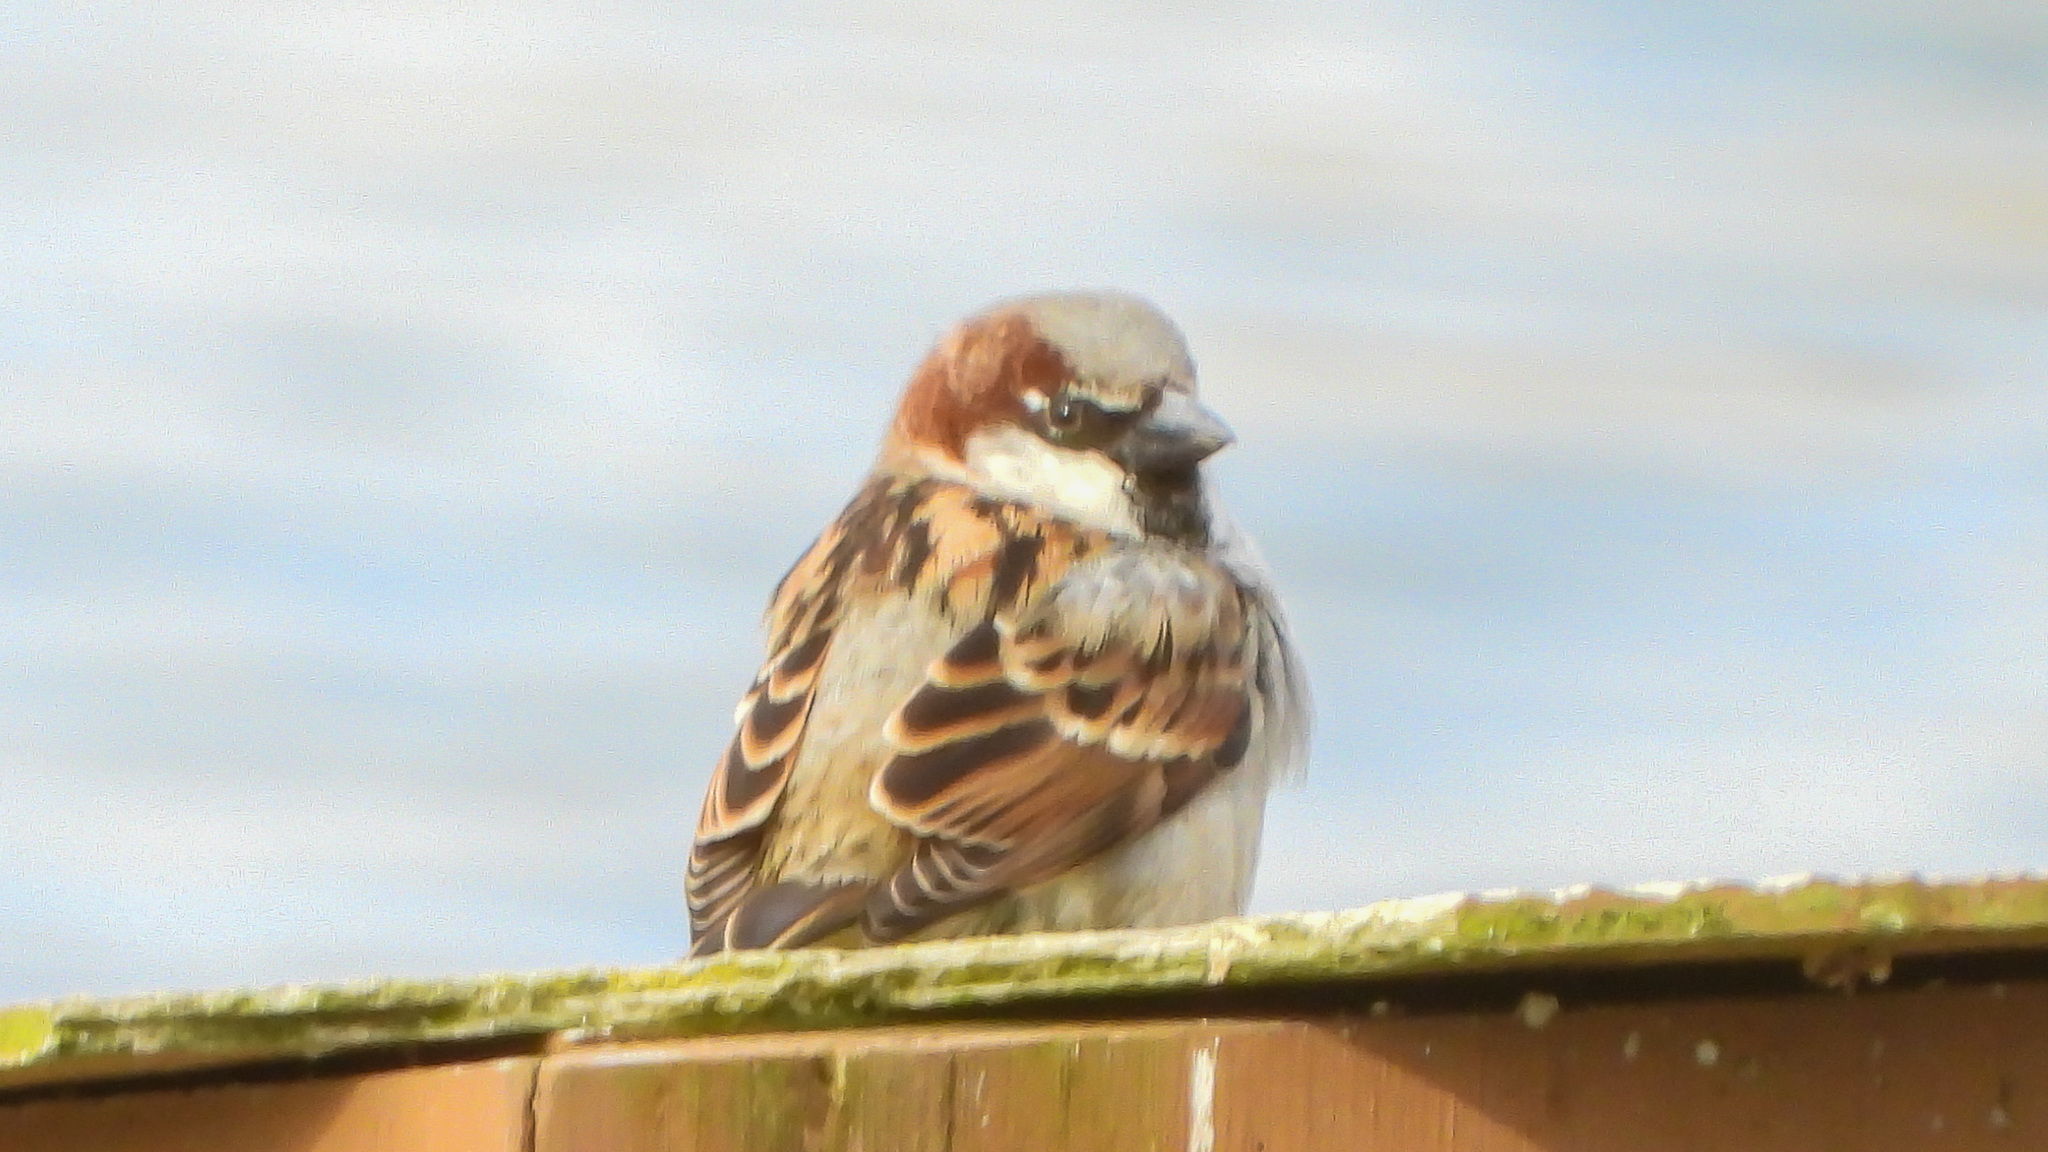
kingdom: Animalia
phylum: Chordata
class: Aves
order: Passeriformes
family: Passeridae
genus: Passer
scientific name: Passer domesticus
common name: House sparrow
